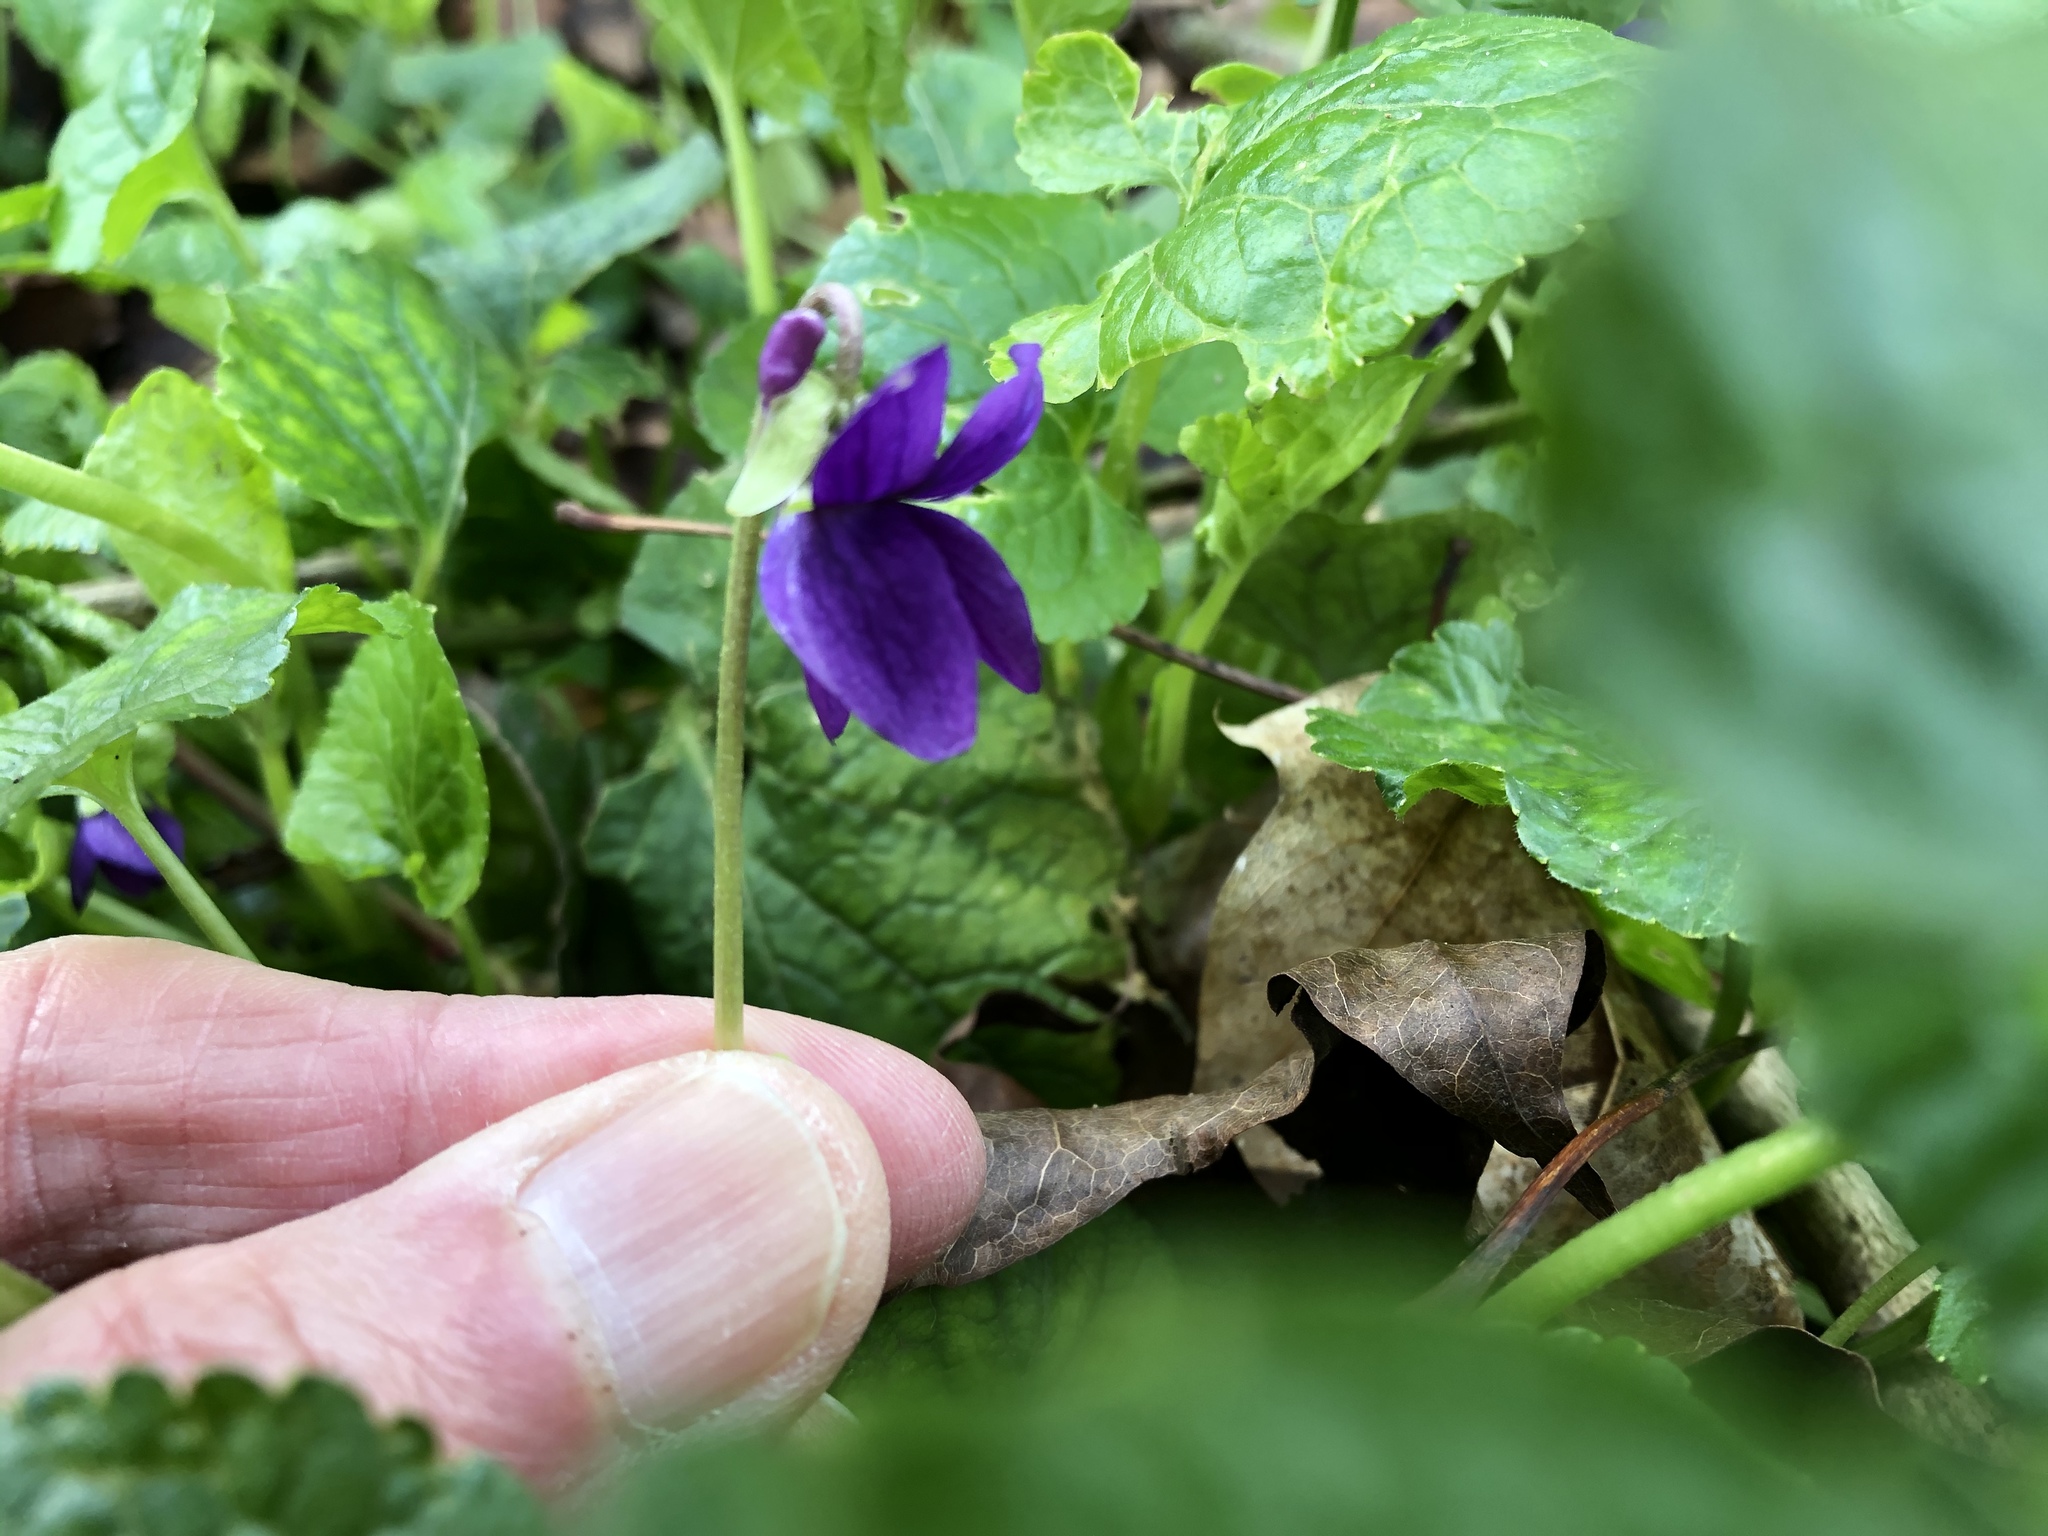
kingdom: Plantae
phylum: Tracheophyta
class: Magnoliopsida
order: Malpighiales
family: Violaceae
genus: Viola
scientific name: Viola odorata
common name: Sweet violet
